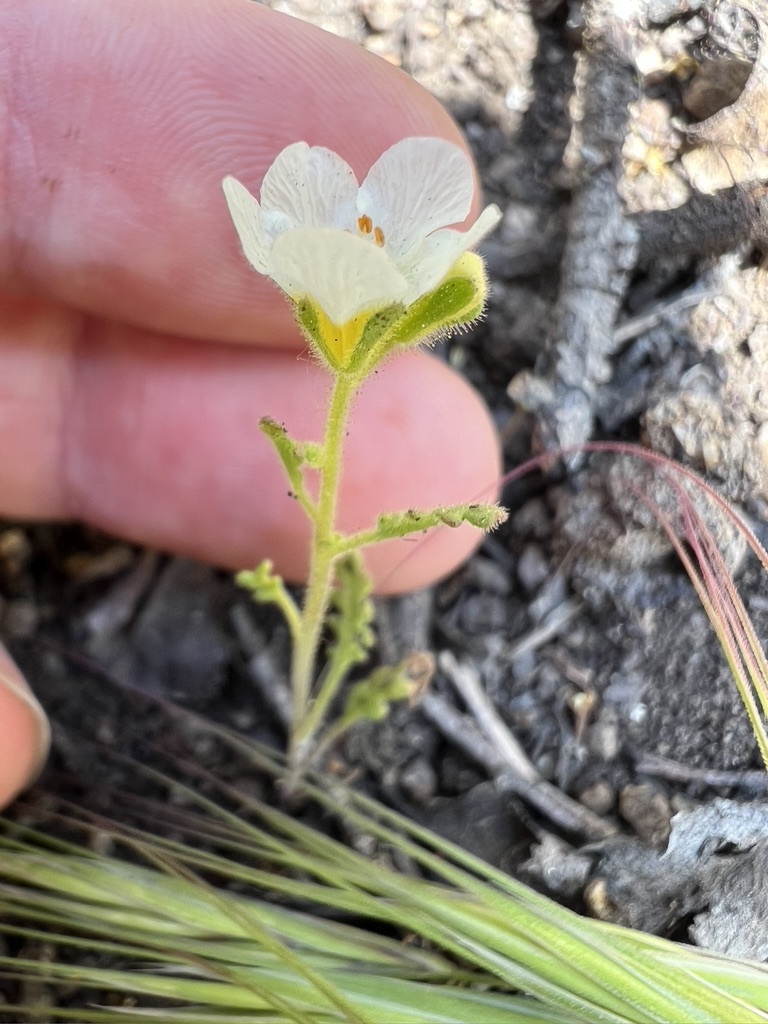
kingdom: Plantae
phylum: Tracheophyta
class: Magnoliopsida
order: Boraginales
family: Hydrophyllaceae
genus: Phacelia
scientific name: Phacelia brachyloba
